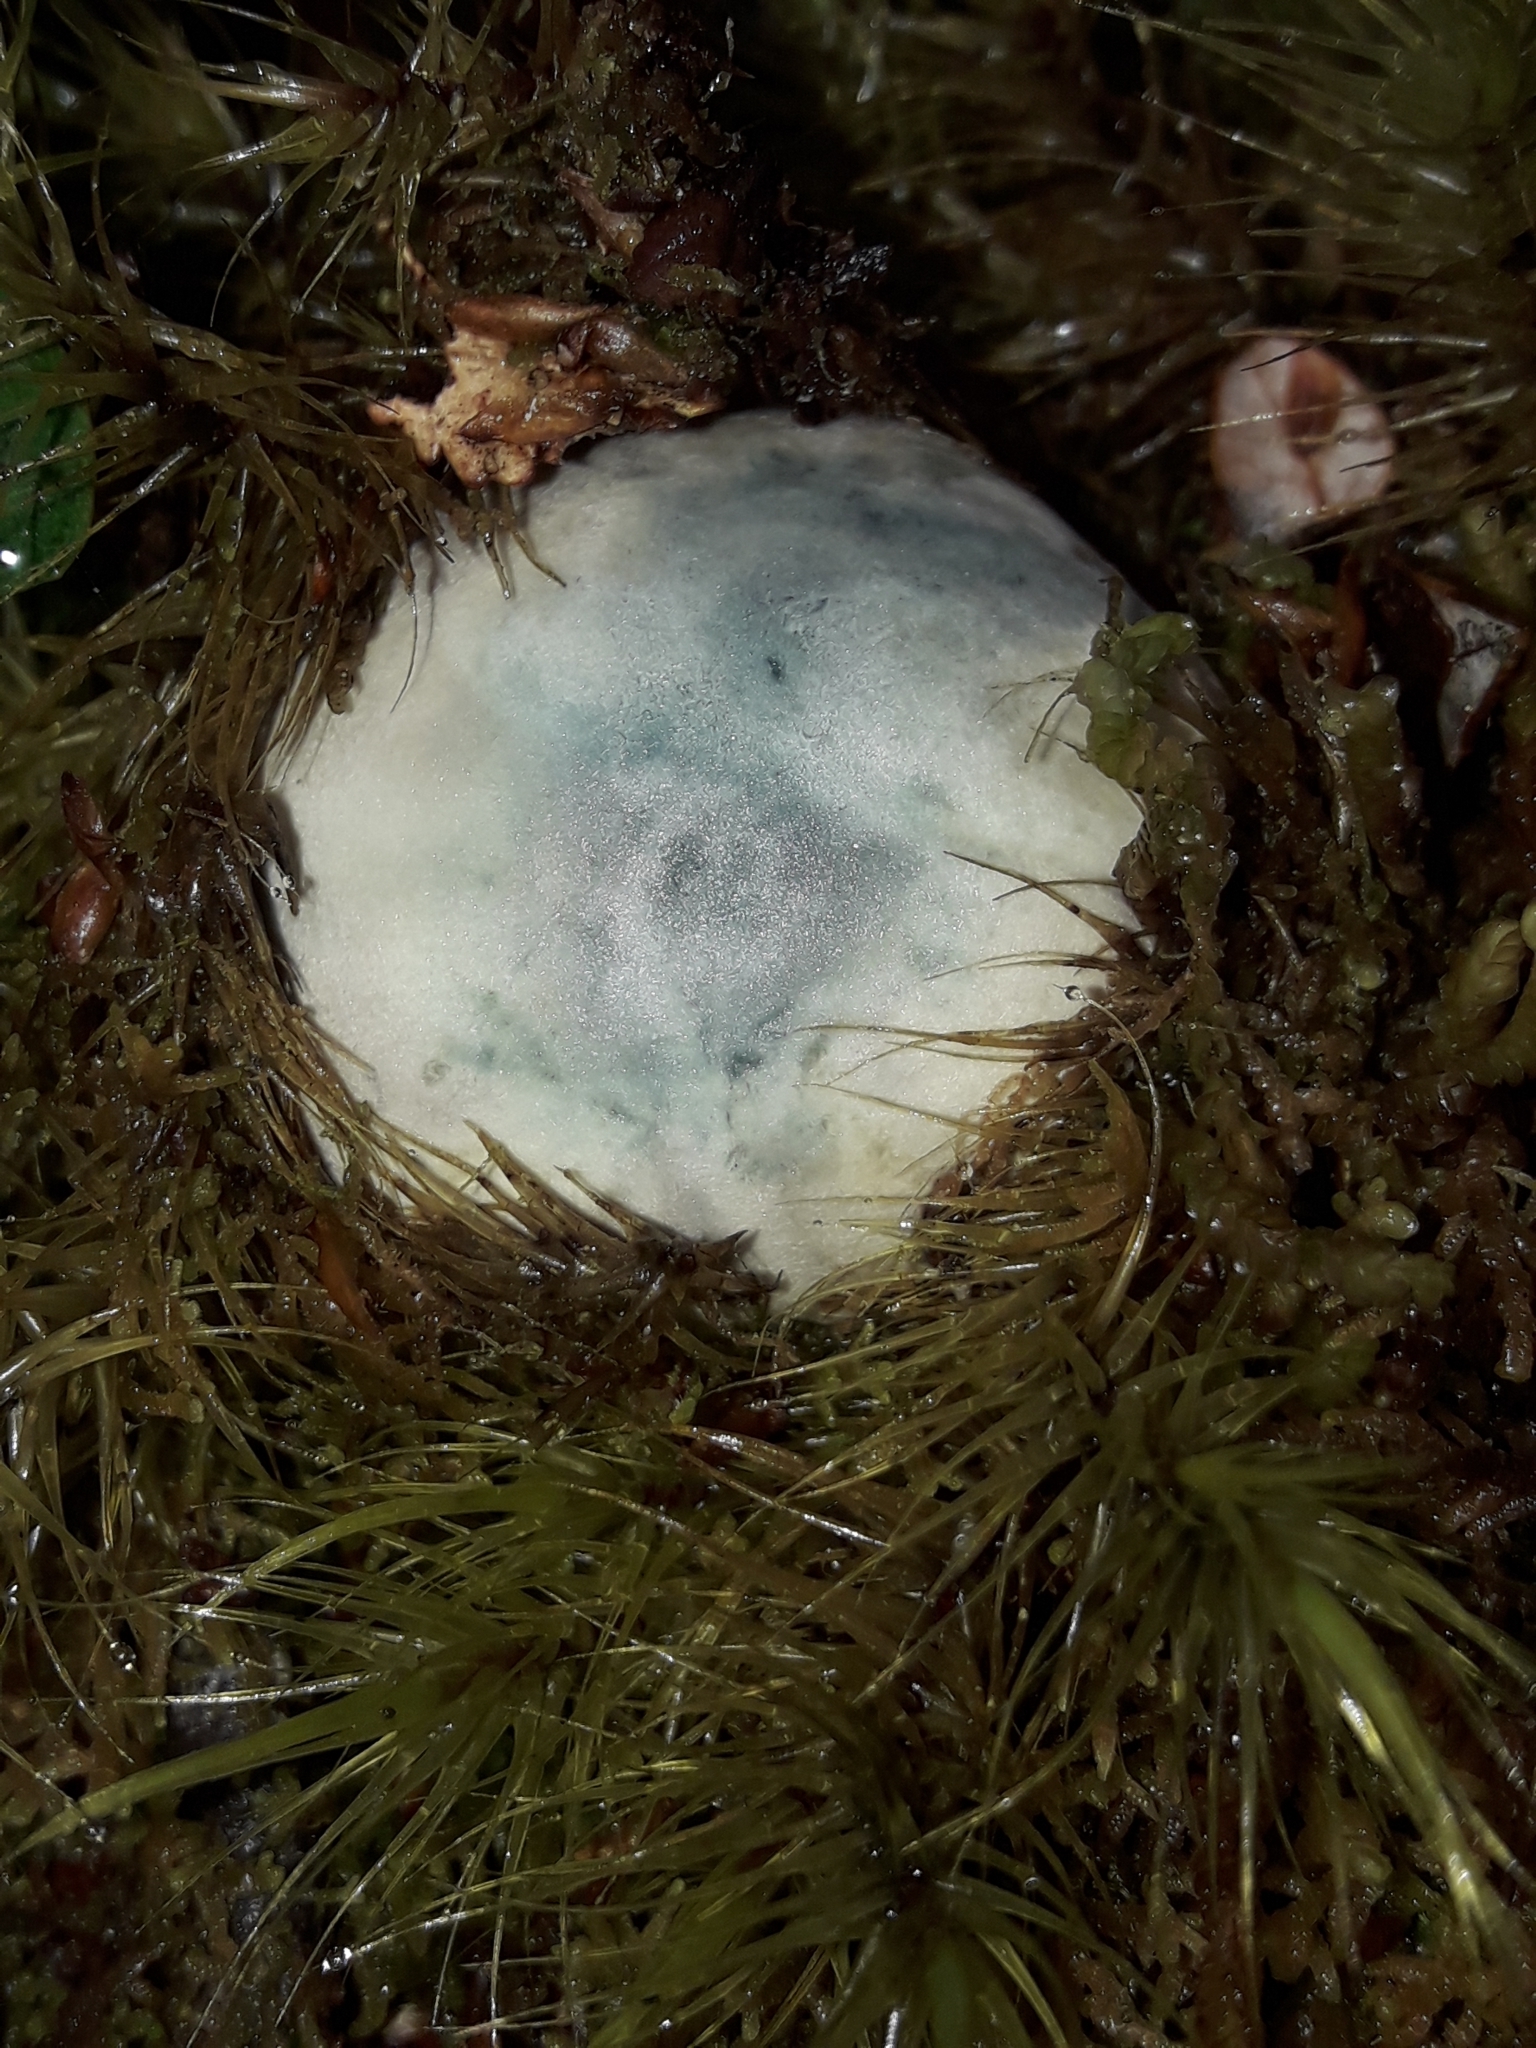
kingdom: Fungi
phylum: Basidiomycota
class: Agaricomycetes
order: Boletales
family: Boletaceae
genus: Leccinum
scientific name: Leccinum pachyderme
